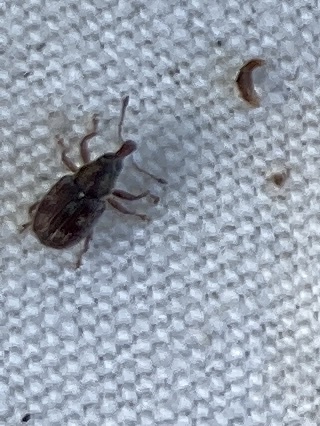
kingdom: Animalia
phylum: Arthropoda
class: Insecta
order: Coleoptera
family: Curculionidae
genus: Neomycta
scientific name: Neomycta rubida
